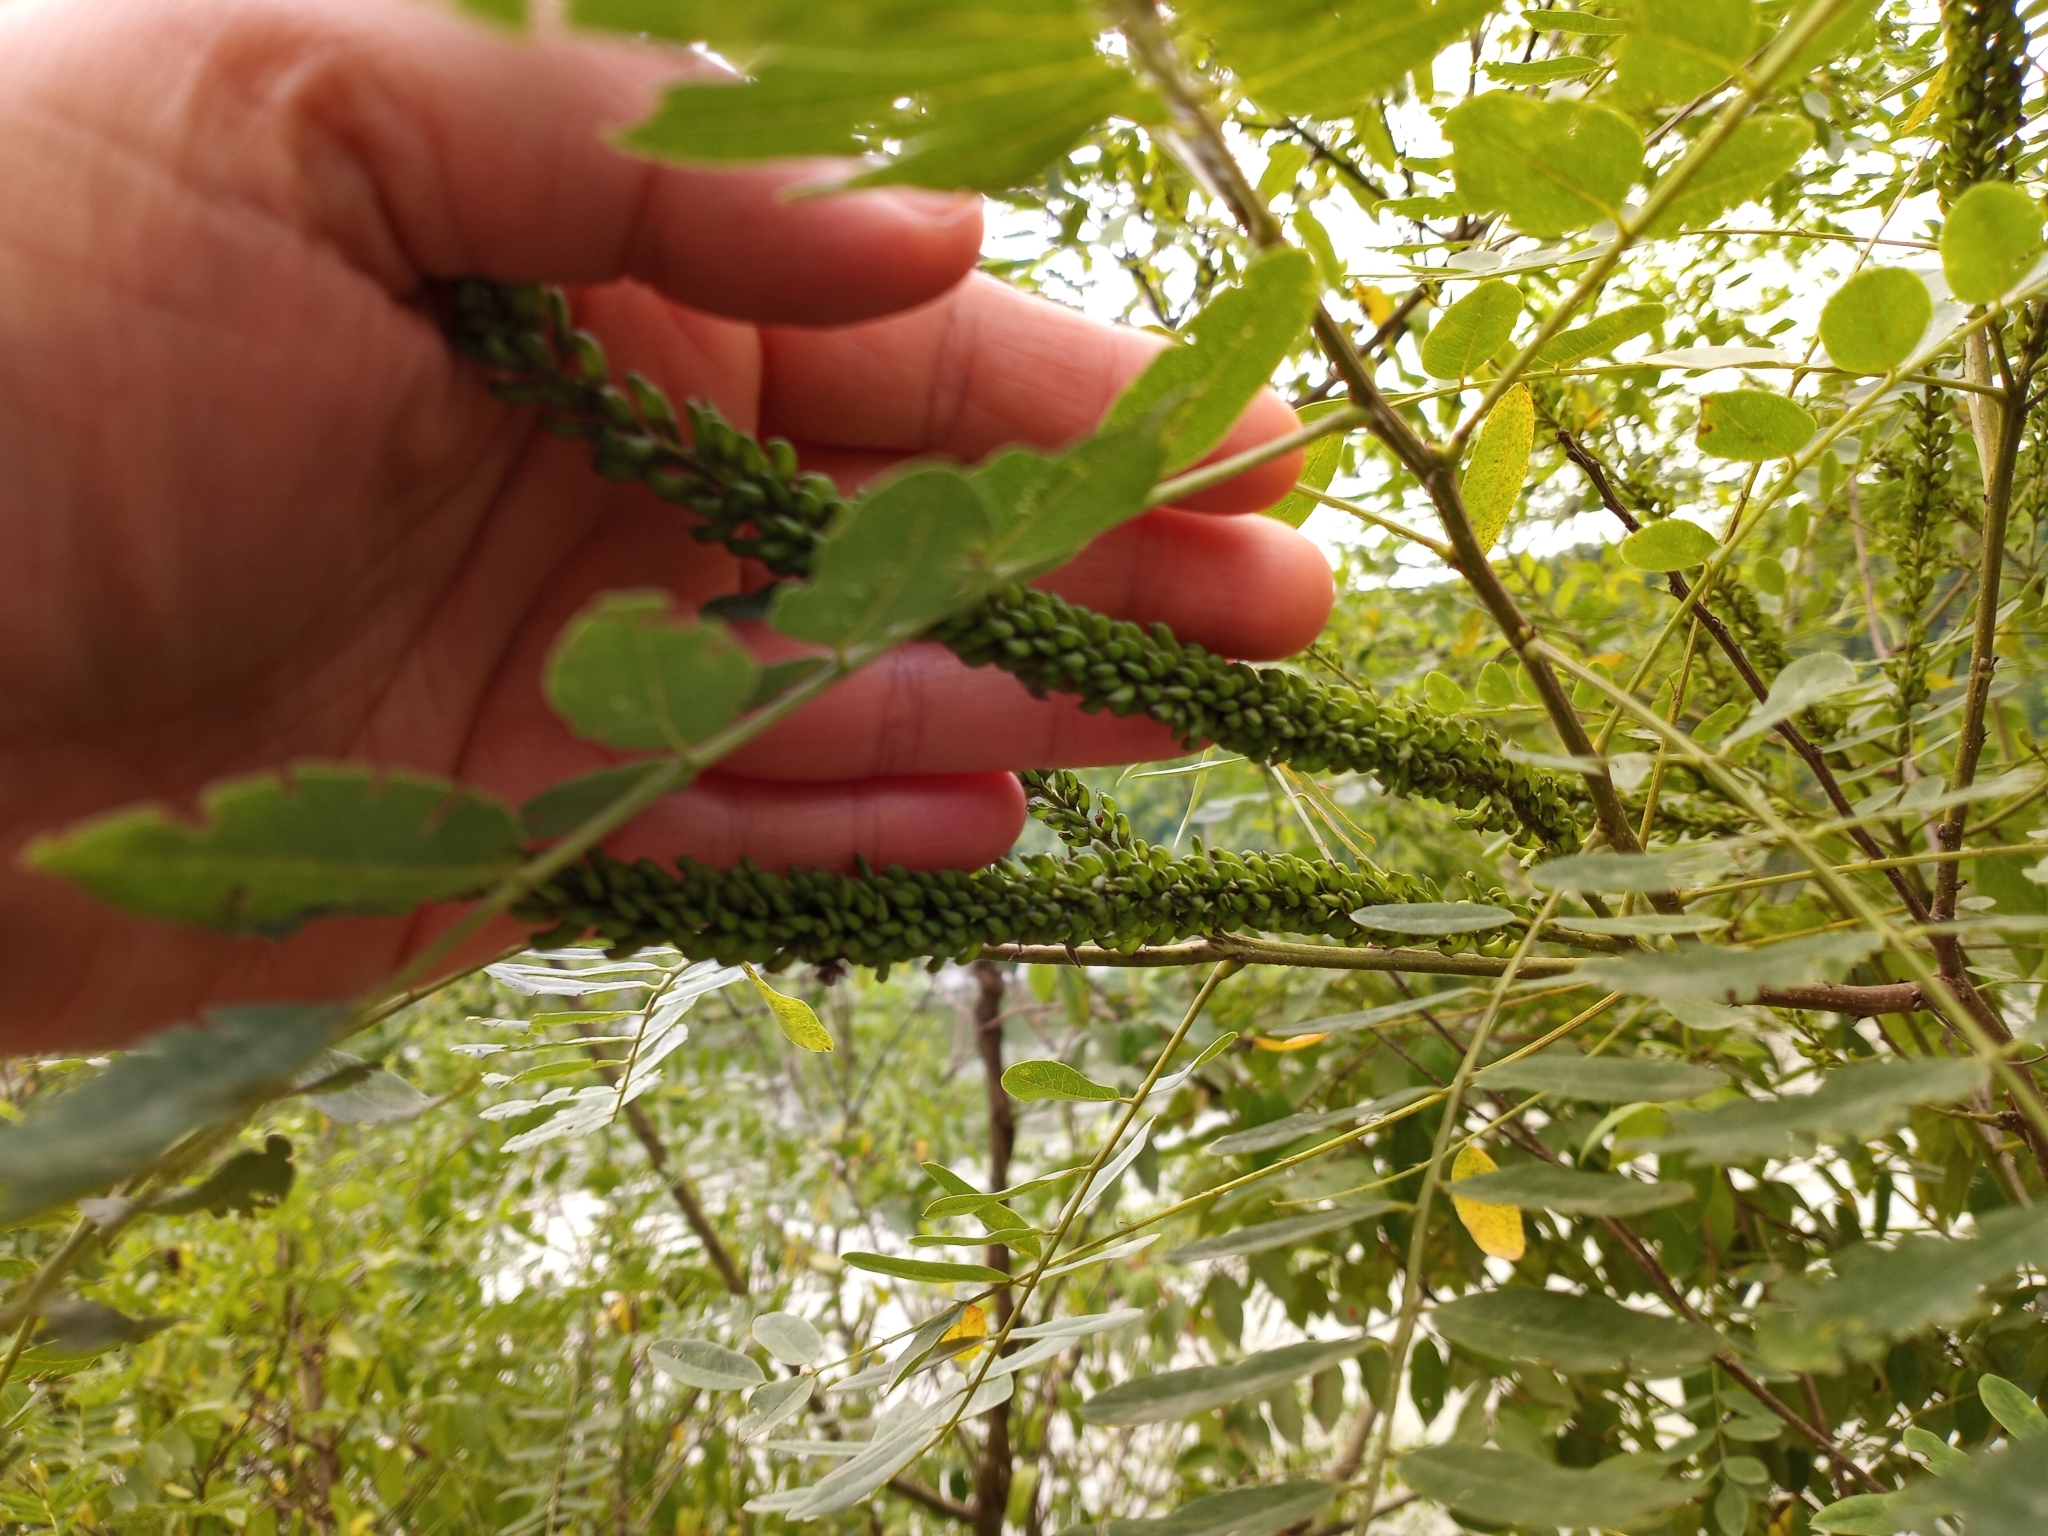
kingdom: Plantae
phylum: Tracheophyta
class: Magnoliopsida
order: Fabales
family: Fabaceae
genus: Amorpha
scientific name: Amorpha fruticosa
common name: False indigo
